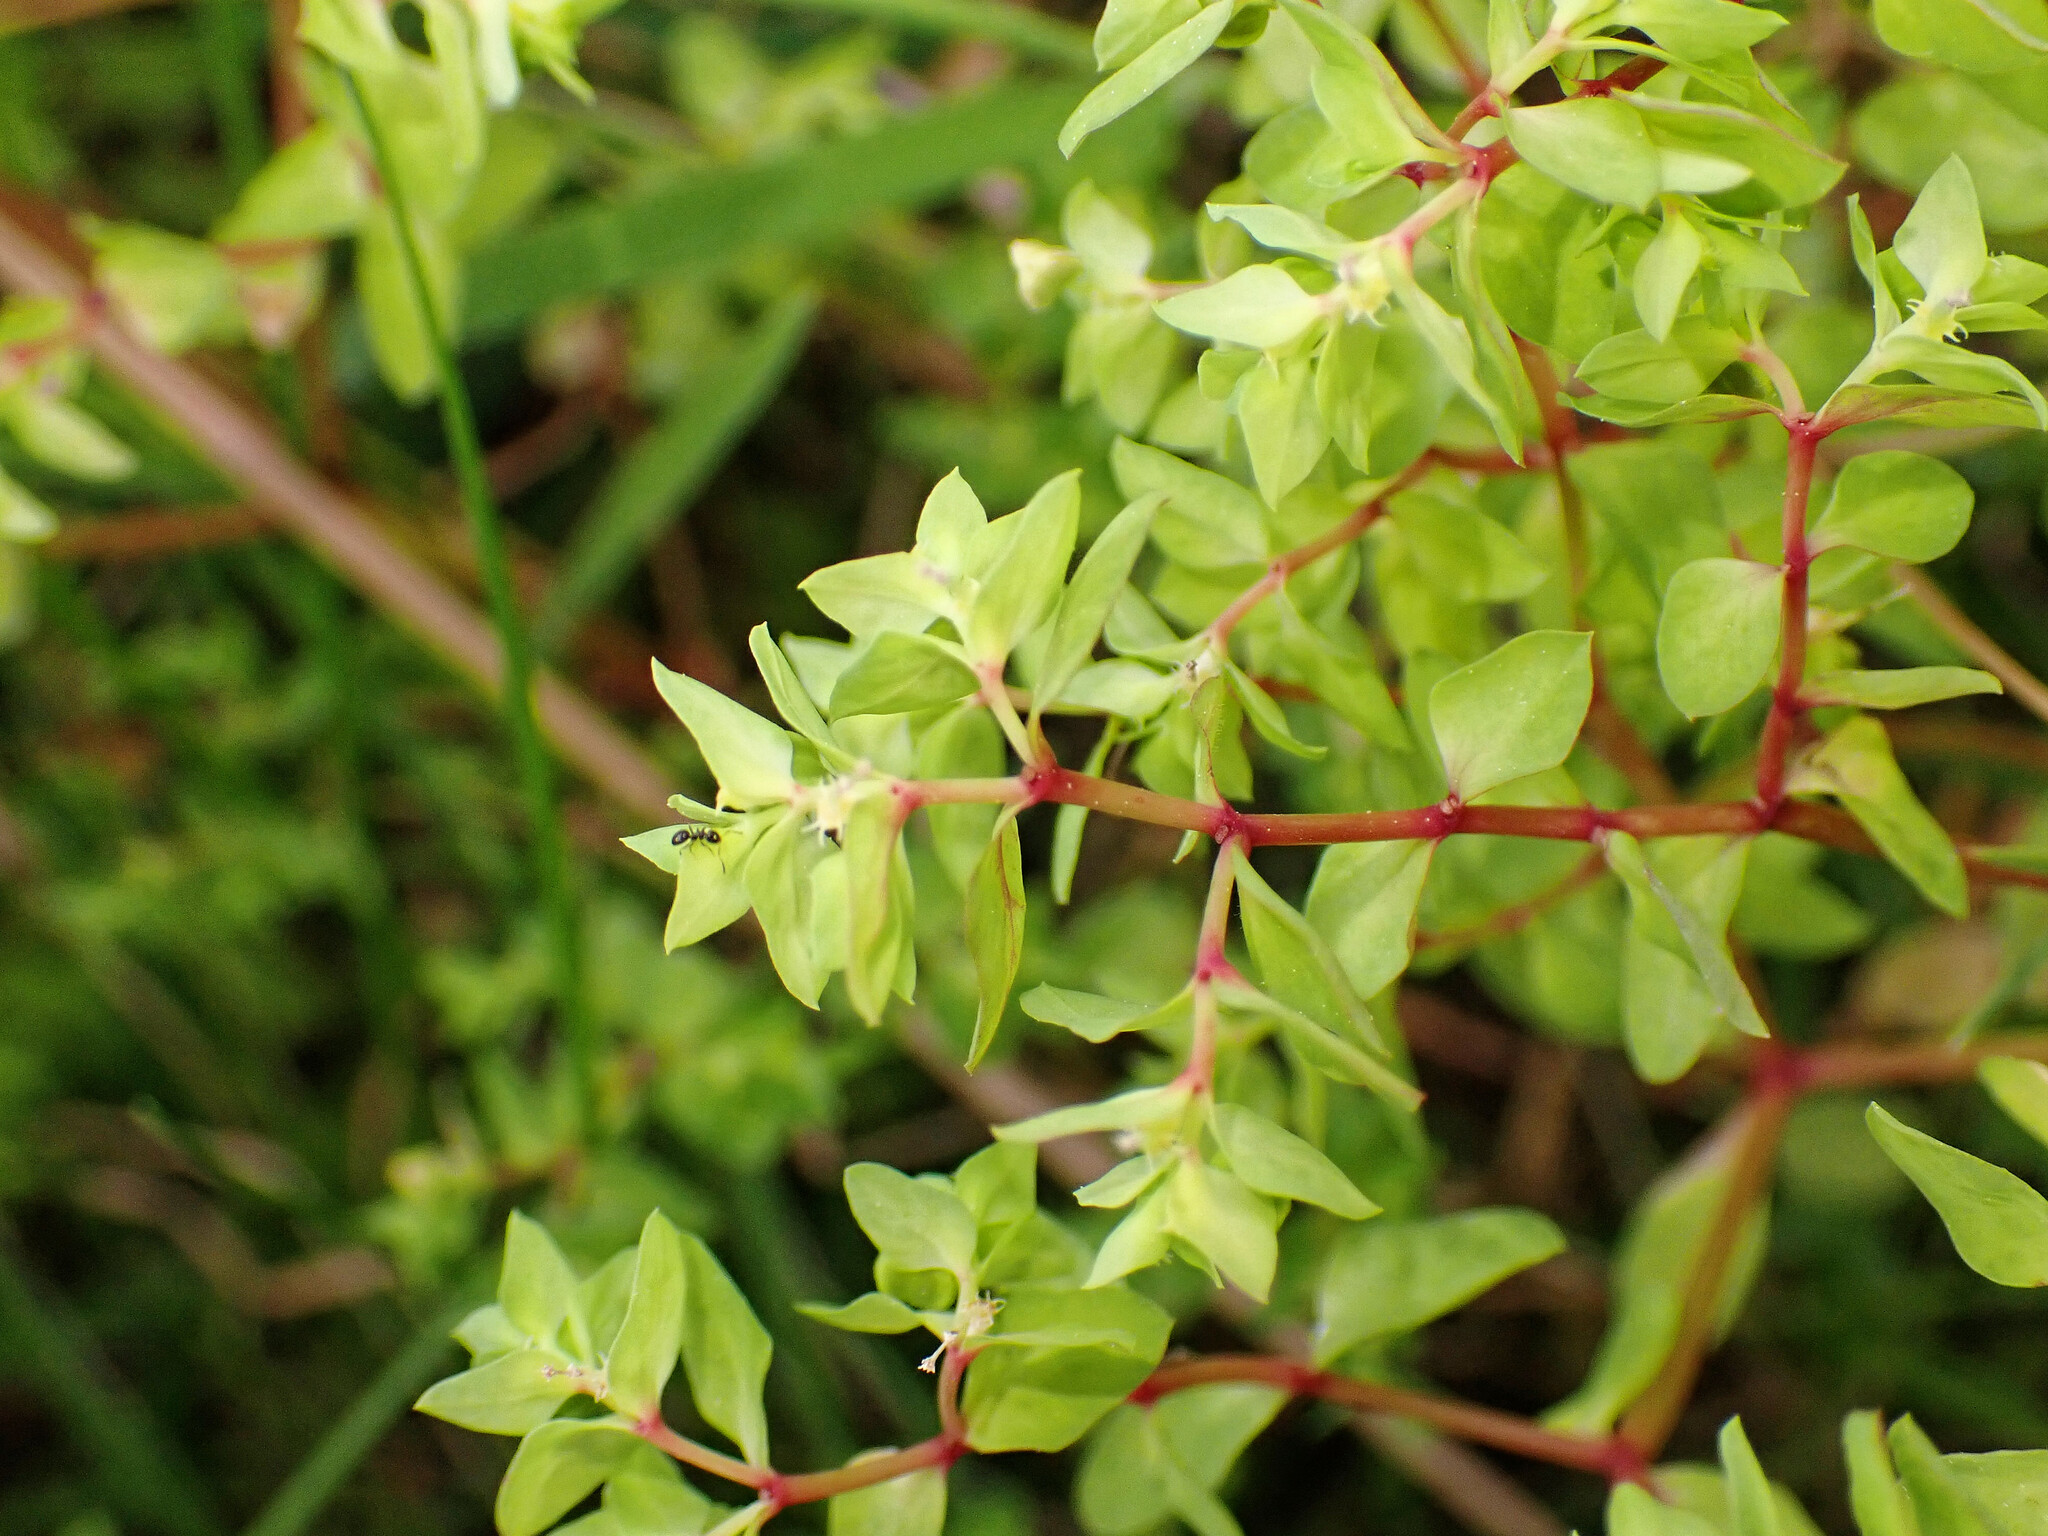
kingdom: Plantae
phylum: Tracheophyta
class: Magnoliopsida
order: Malpighiales
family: Euphorbiaceae
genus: Euphorbia
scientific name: Euphorbia peplus
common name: Petty spurge
